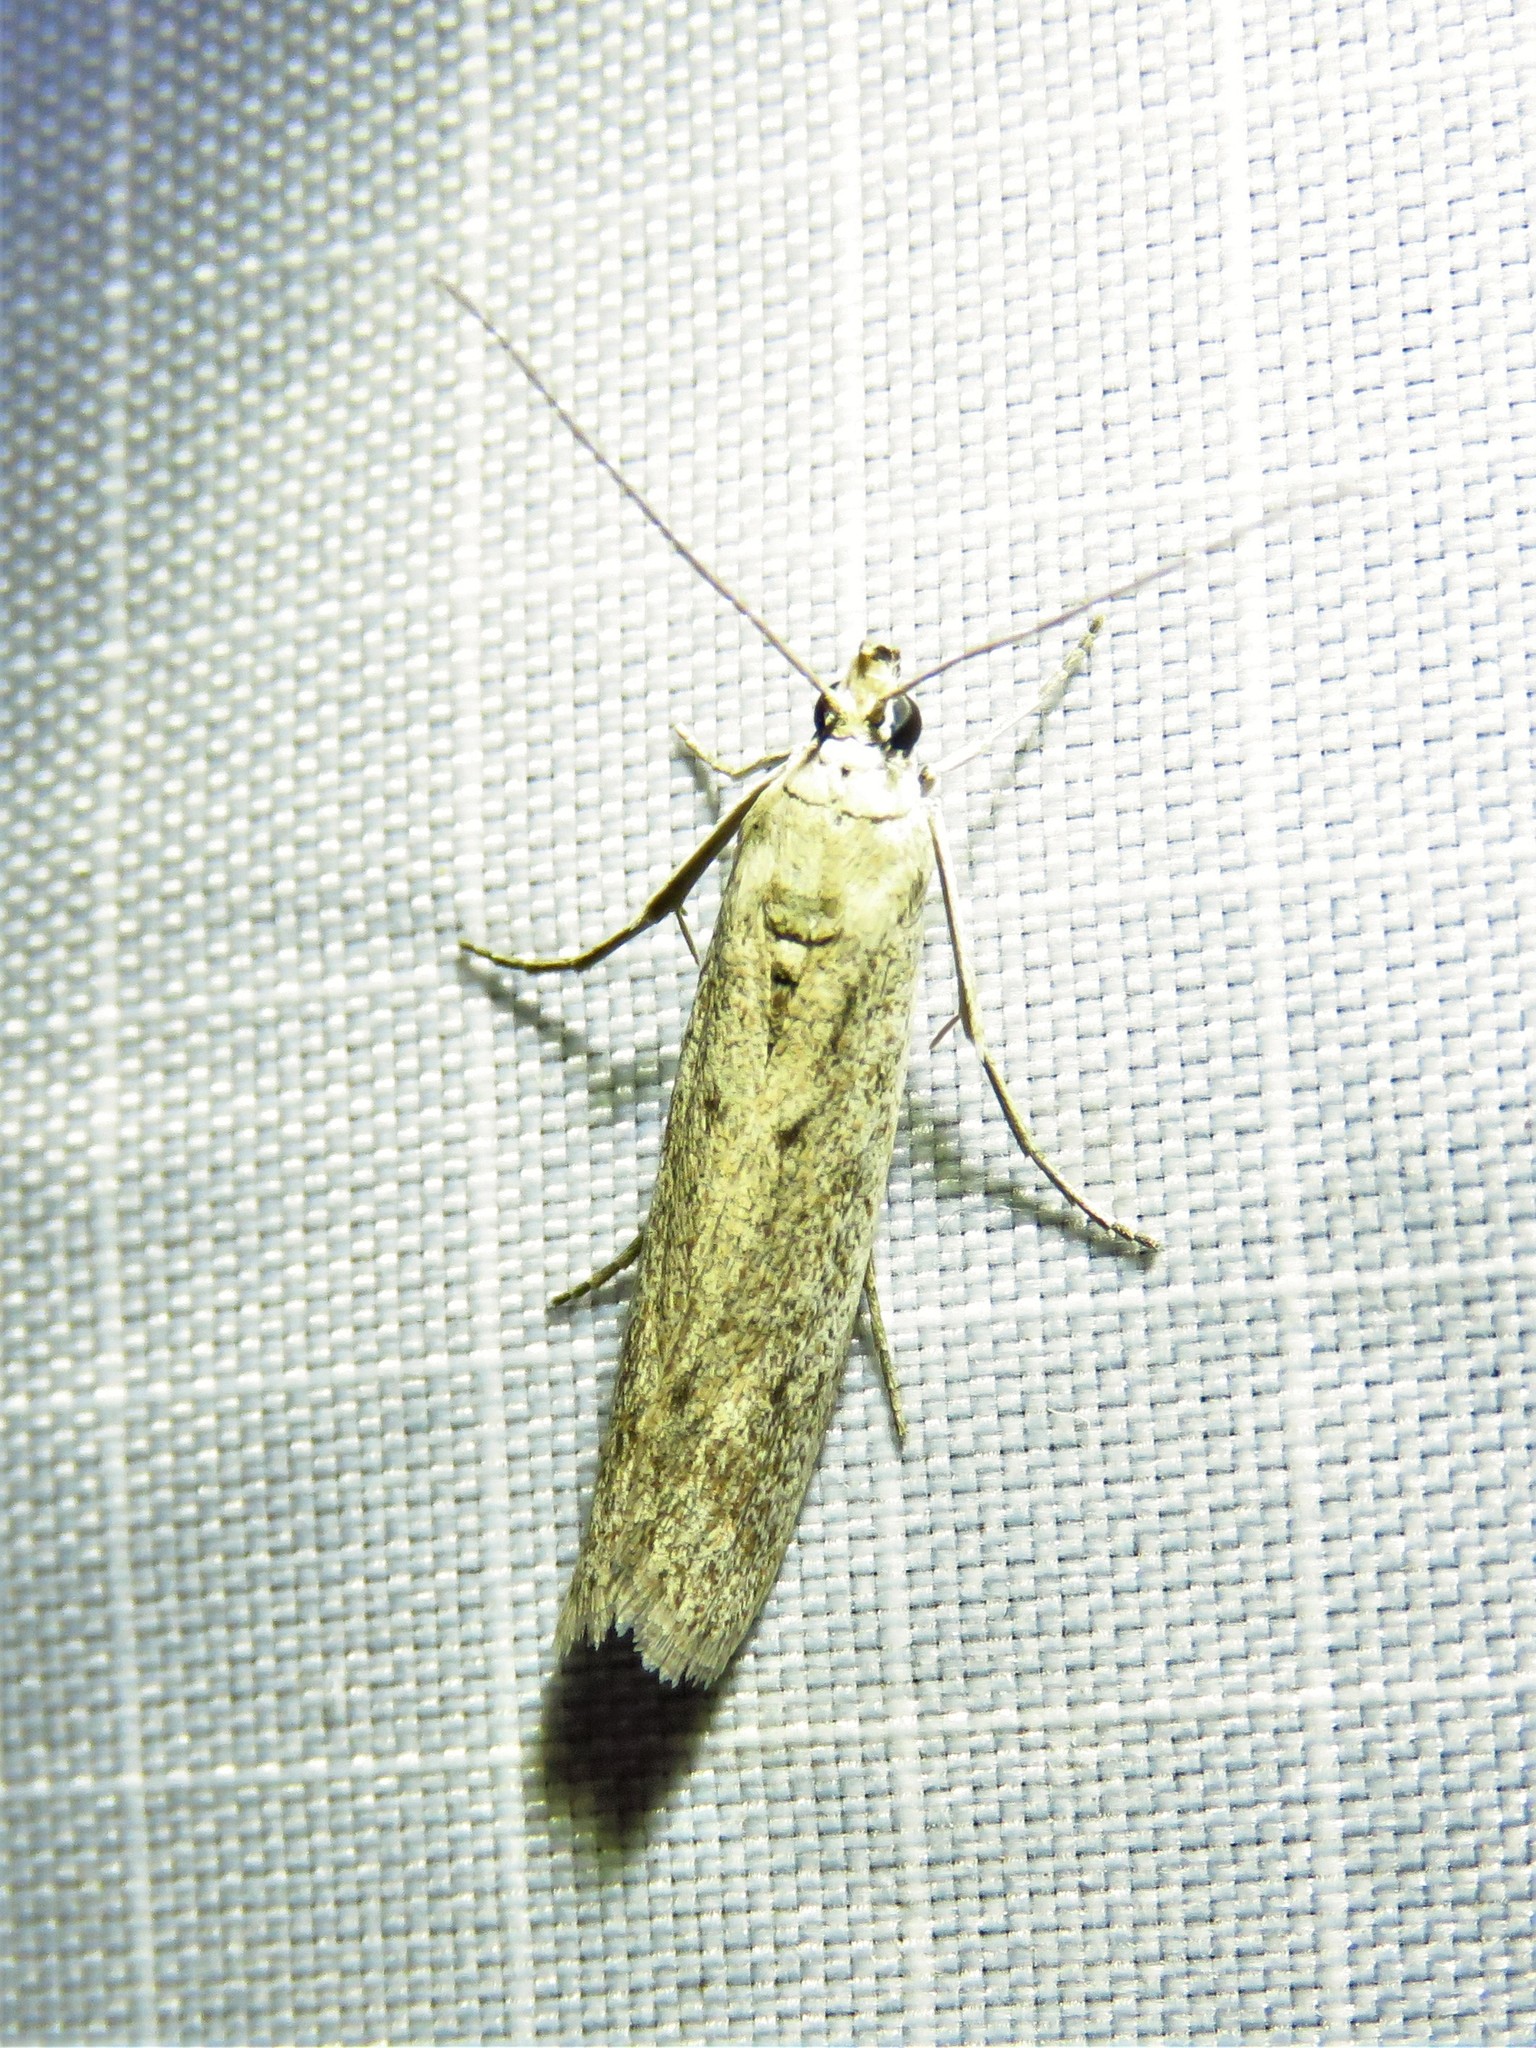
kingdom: Animalia
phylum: Arthropoda
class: Insecta
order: Lepidoptera
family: Pyralidae
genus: Homoeosoma
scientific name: Homoeosoma electella
